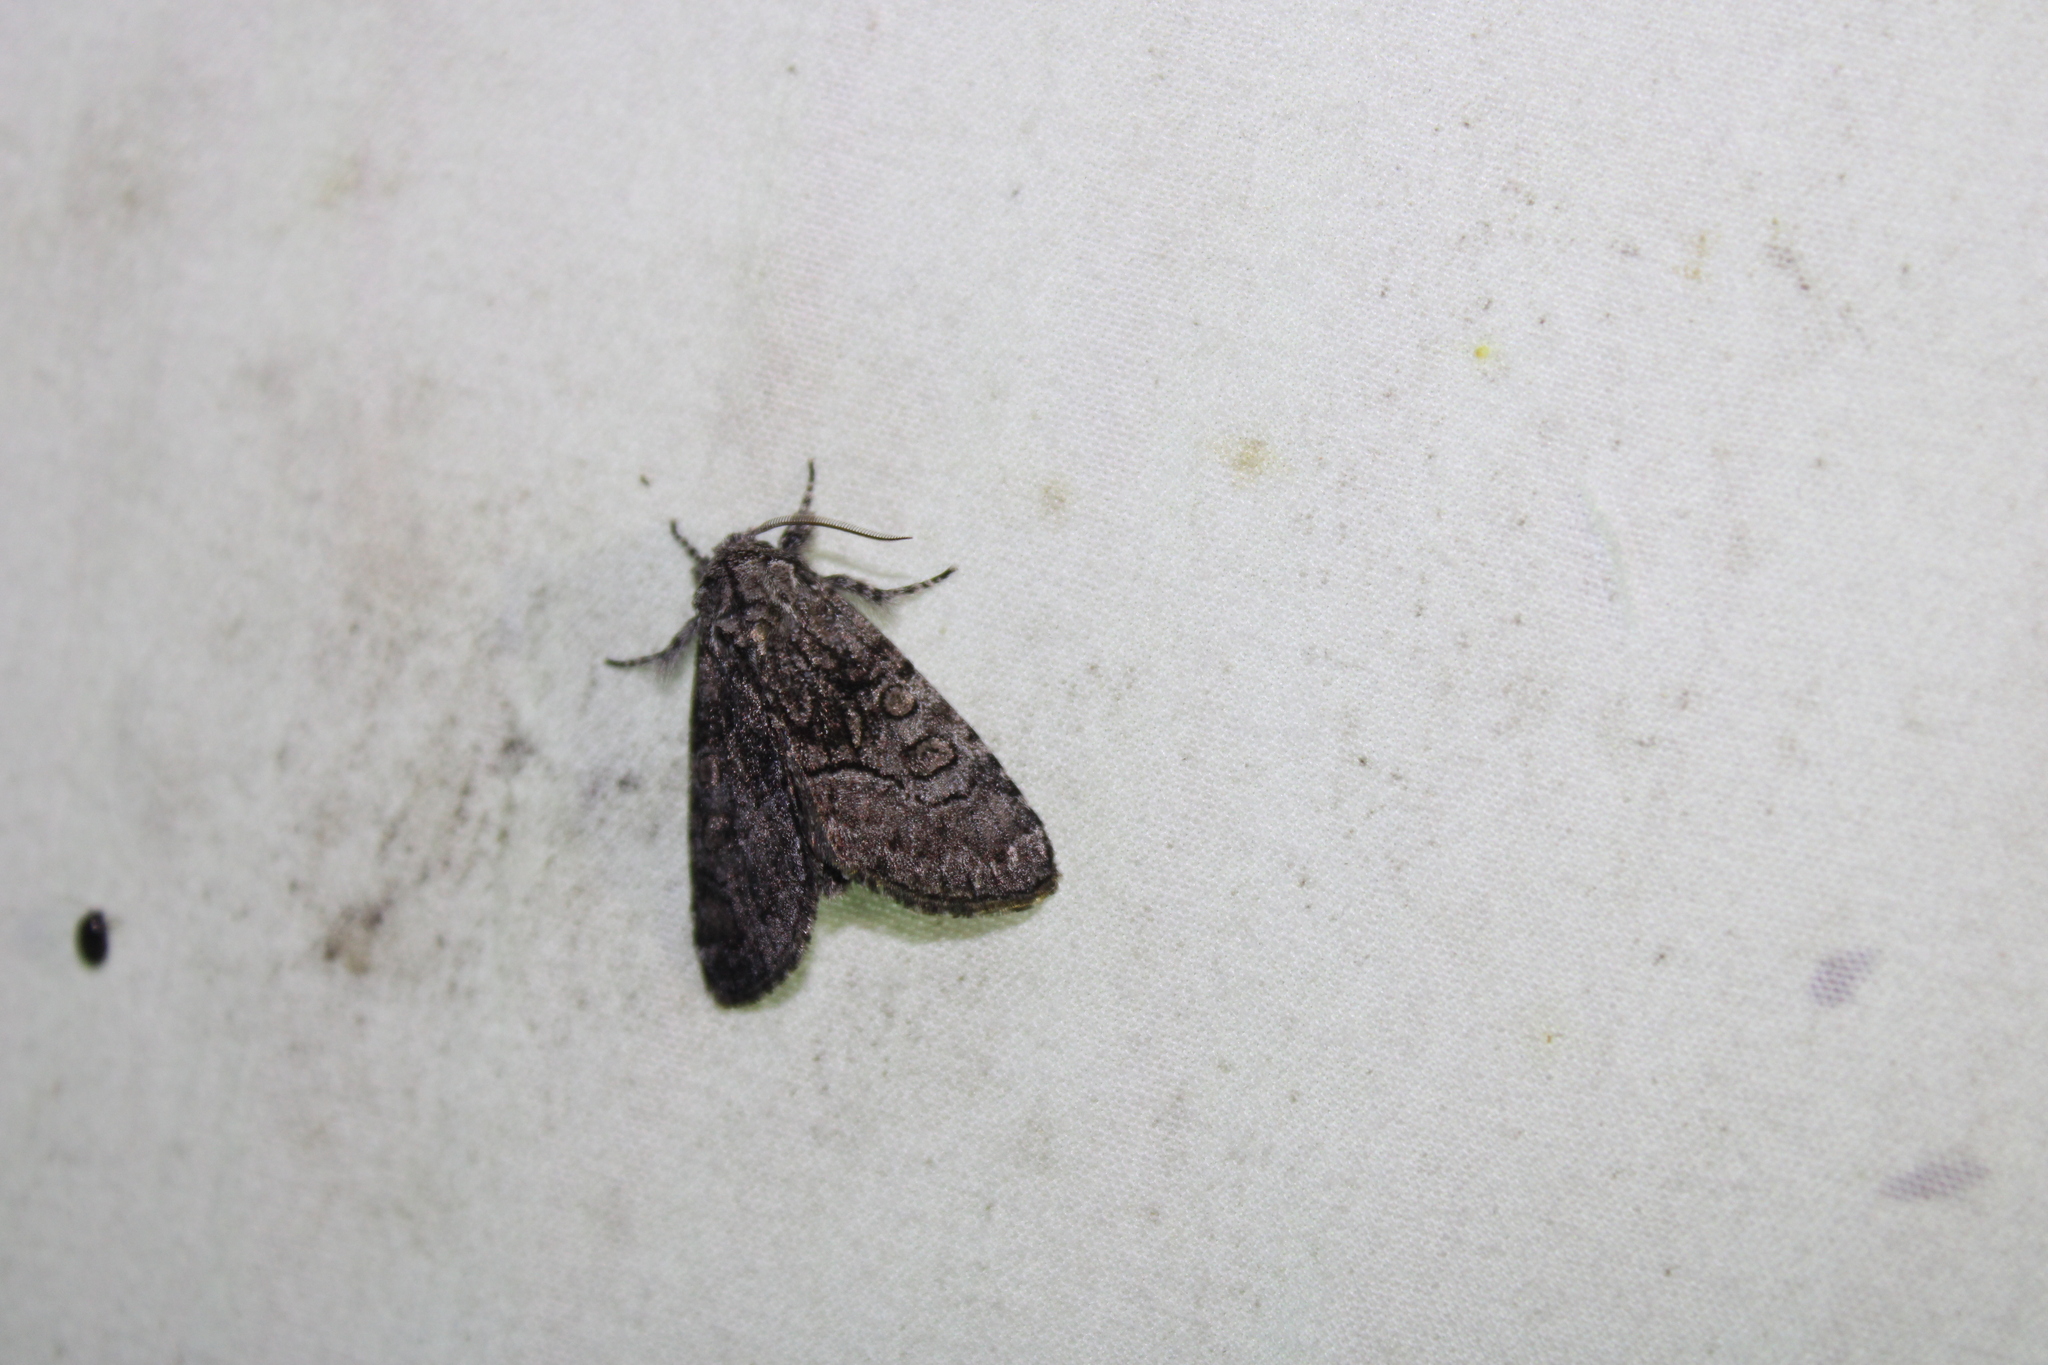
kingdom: Animalia
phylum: Arthropoda
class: Insecta
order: Lepidoptera
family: Noctuidae
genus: Raphia
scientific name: Raphia frater
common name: Brother
